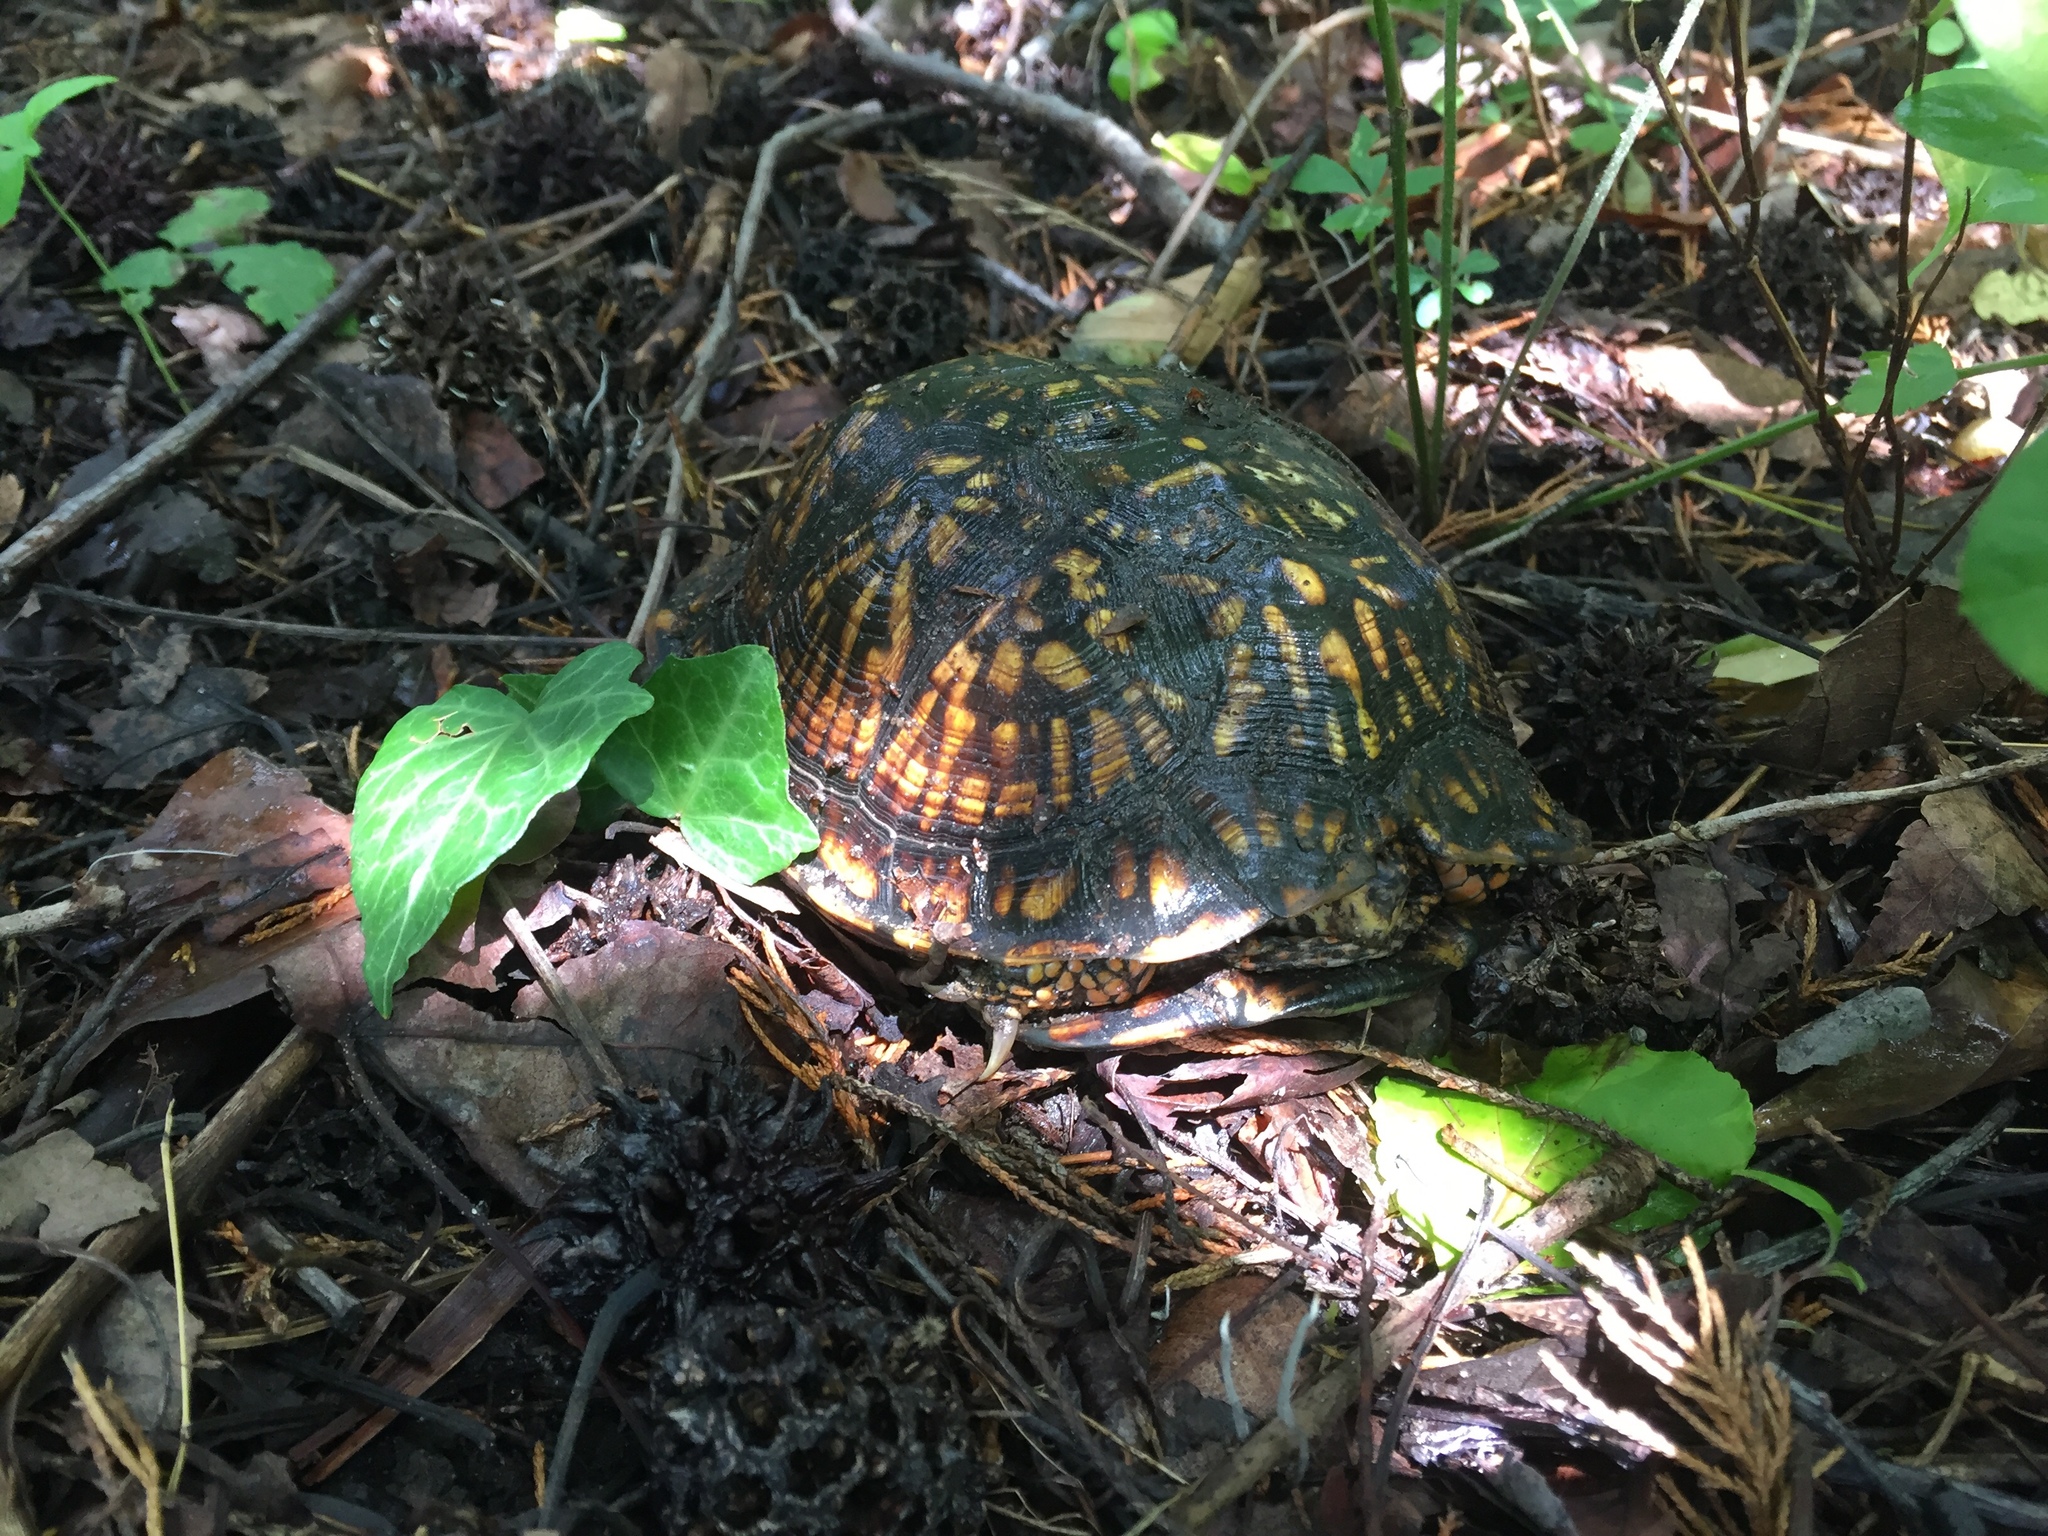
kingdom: Animalia
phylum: Chordata
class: Testudines
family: Emydidae
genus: Terrapene
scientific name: Terrapene carolina
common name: Common box turtle
